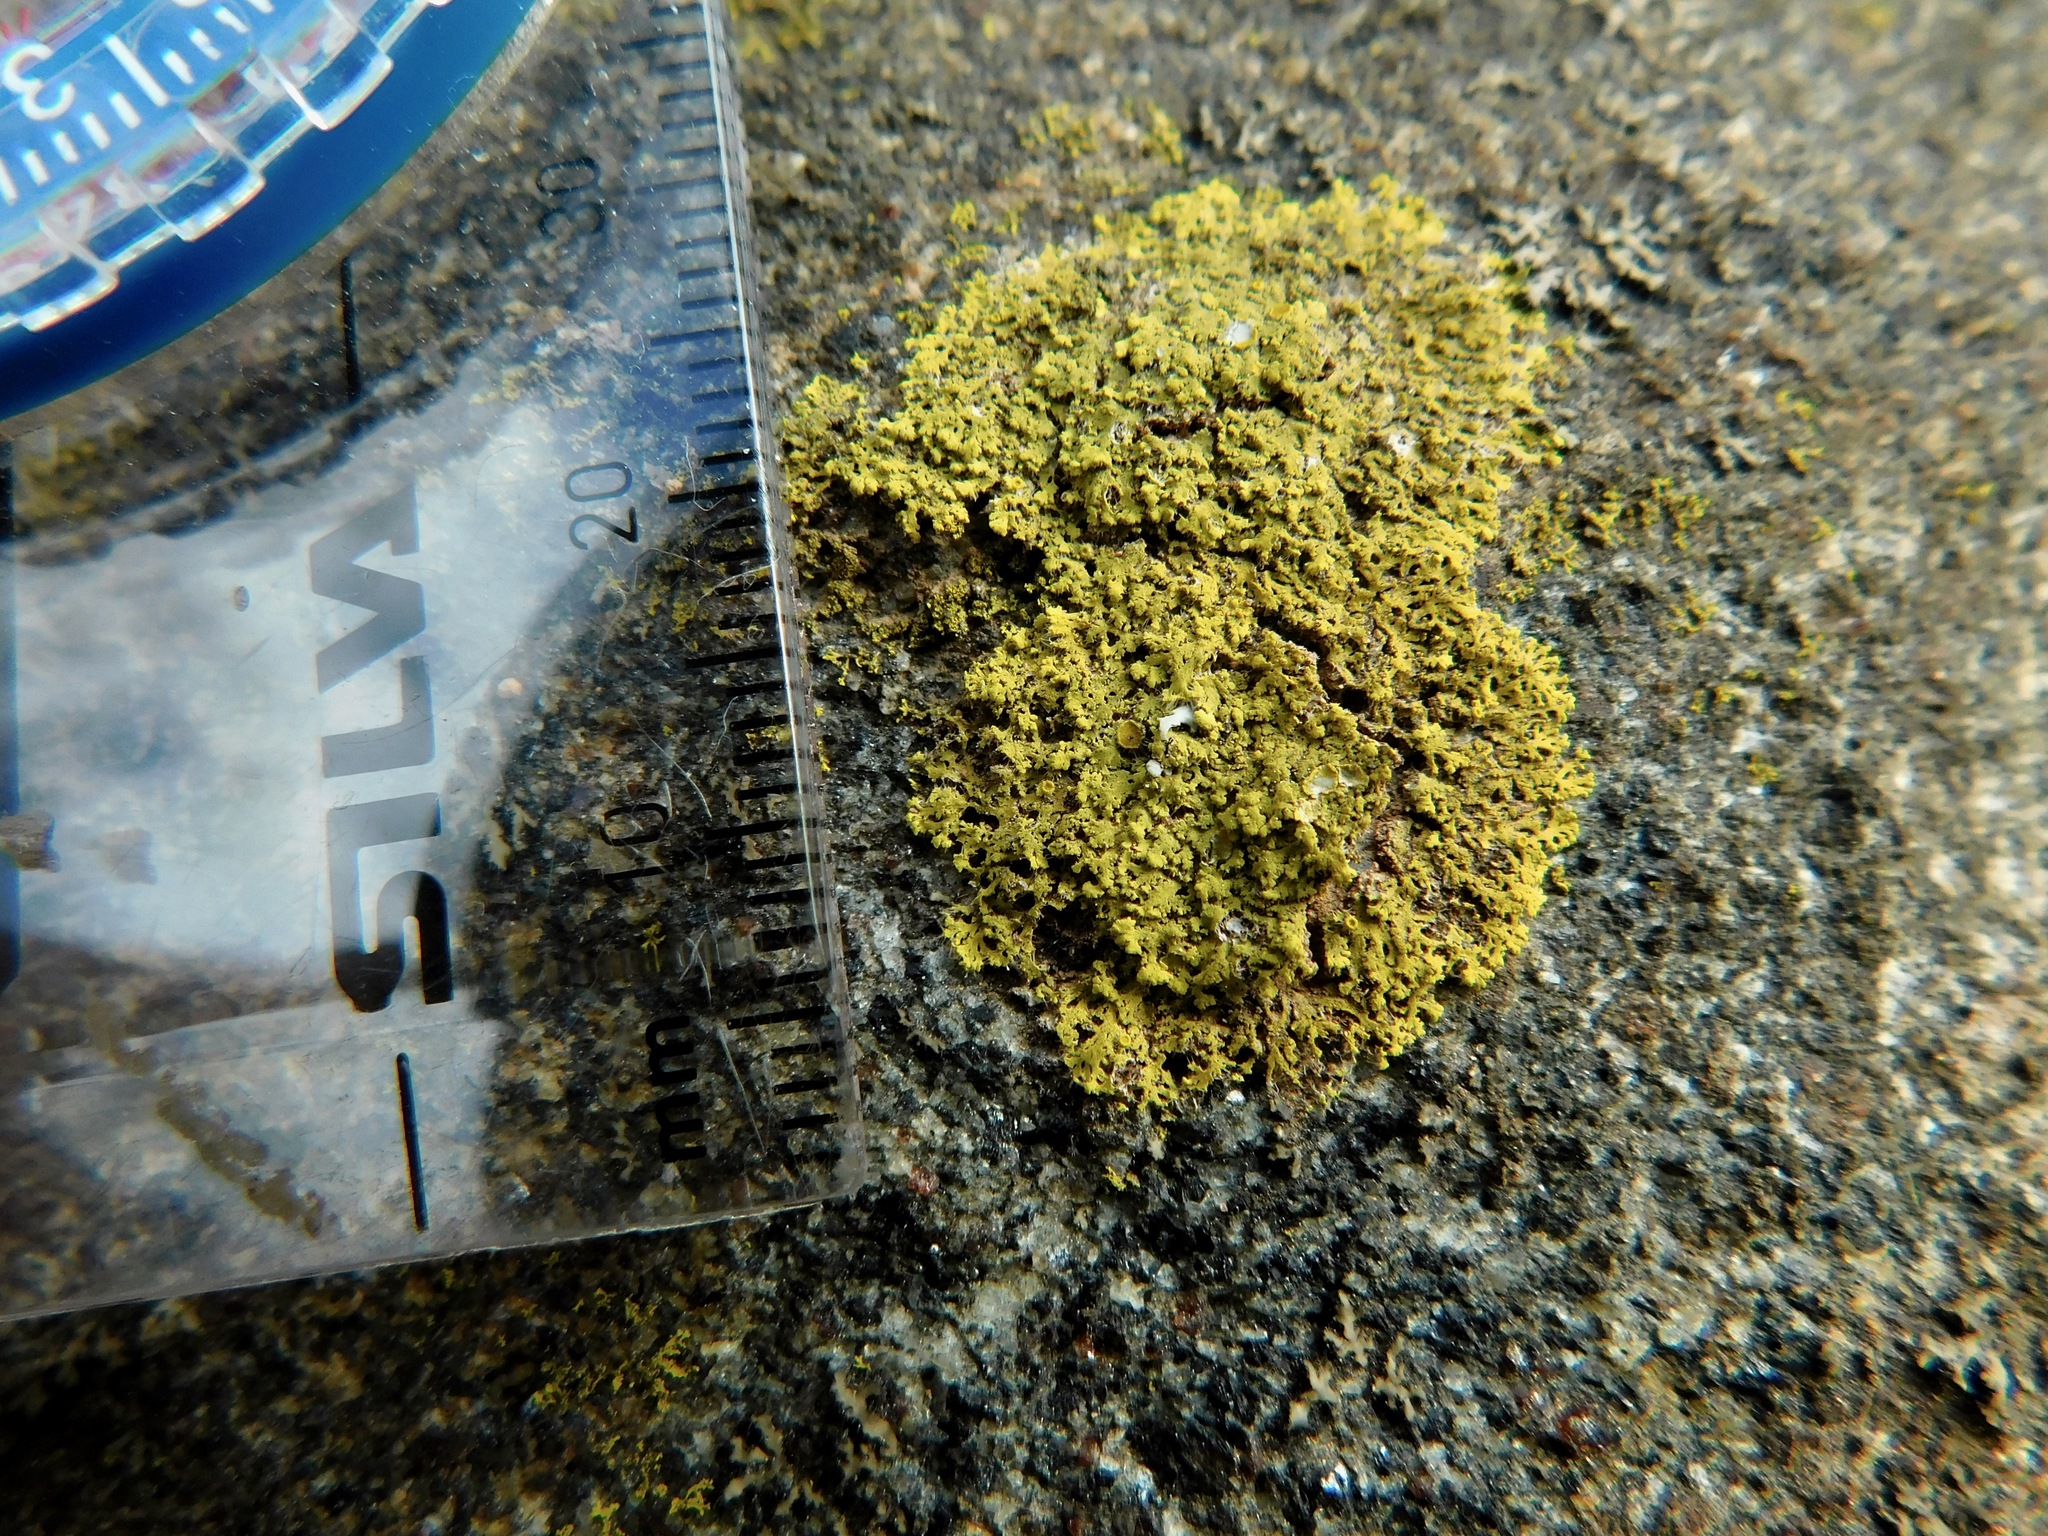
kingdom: Fungi
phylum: Ascomycota
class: Lecanoromycetes
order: Teloschistales
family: Teloschistaceae
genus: Gallowayella
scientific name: Gallowayella hasseana
